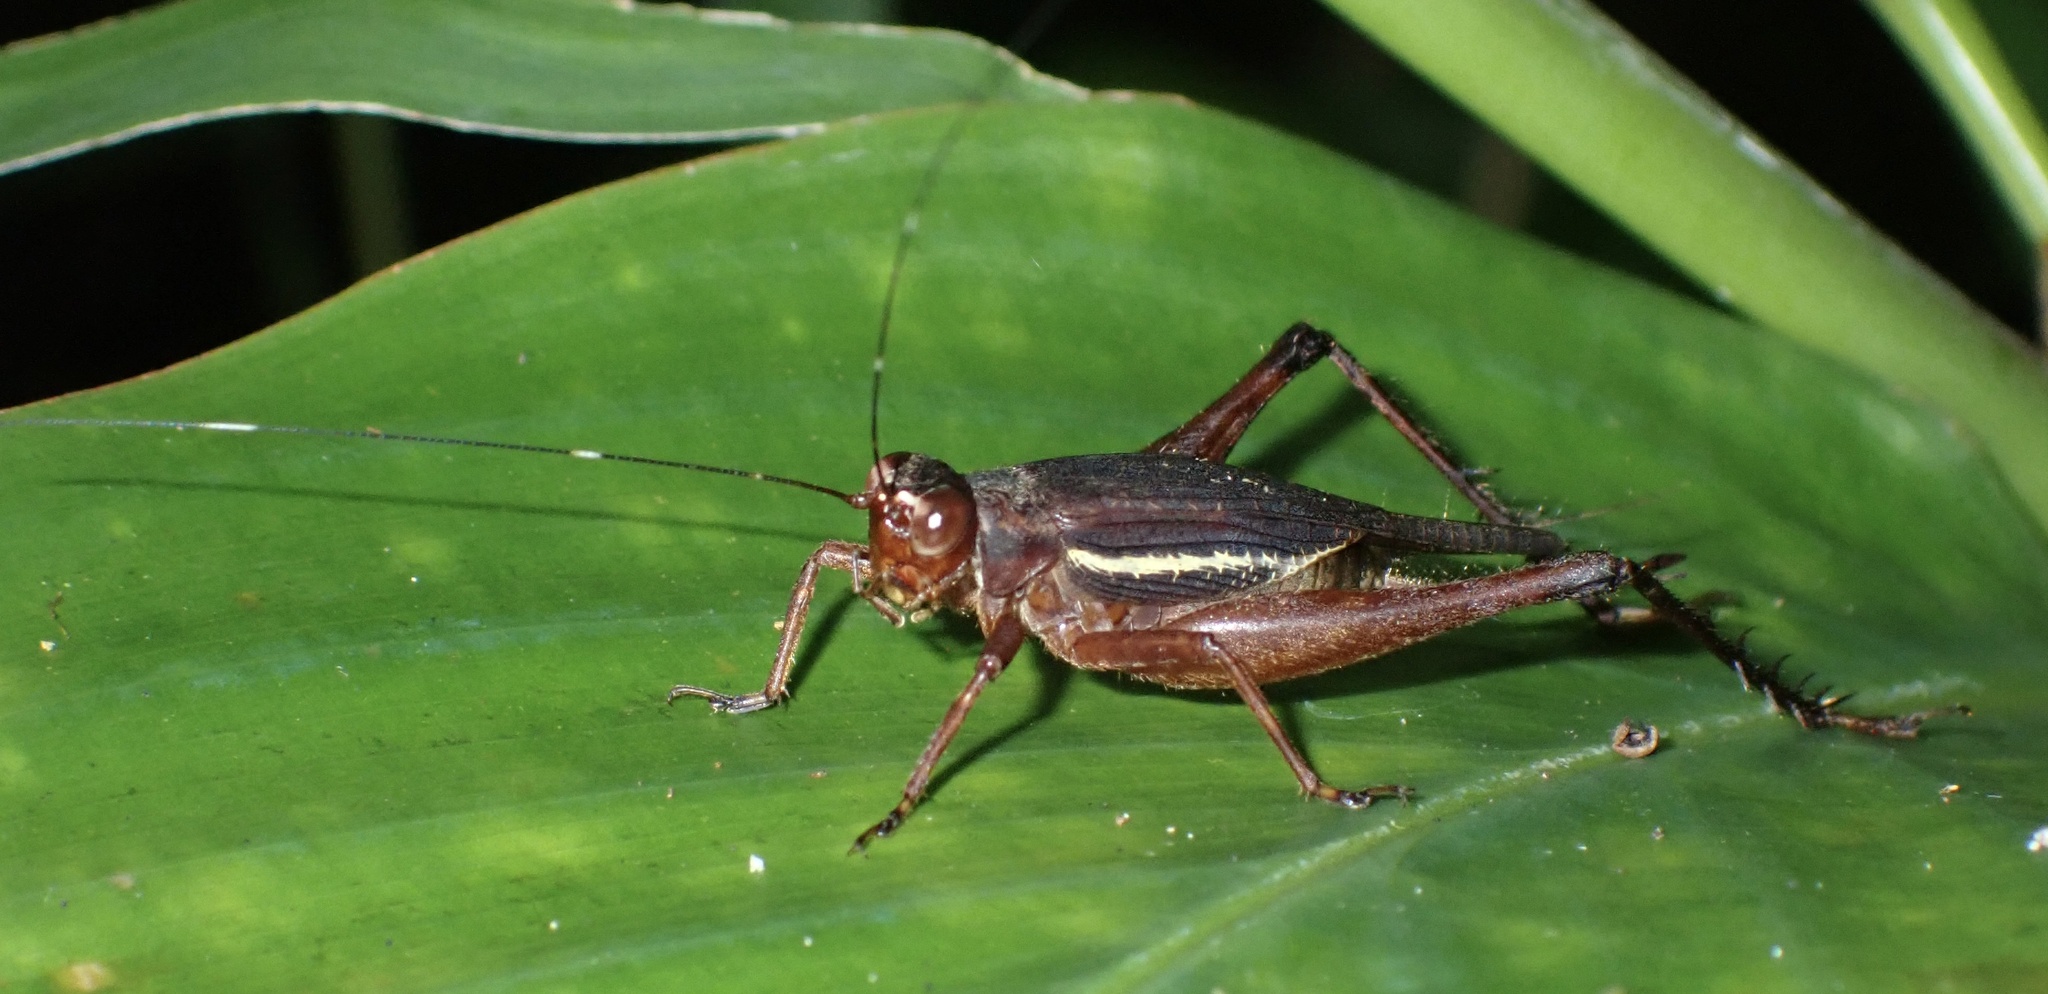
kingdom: Animalia
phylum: Arthropoda
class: Insecta
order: Orthoptera
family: Gryllidae
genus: Cardiodactylus
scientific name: Cardiodactylus pictus
